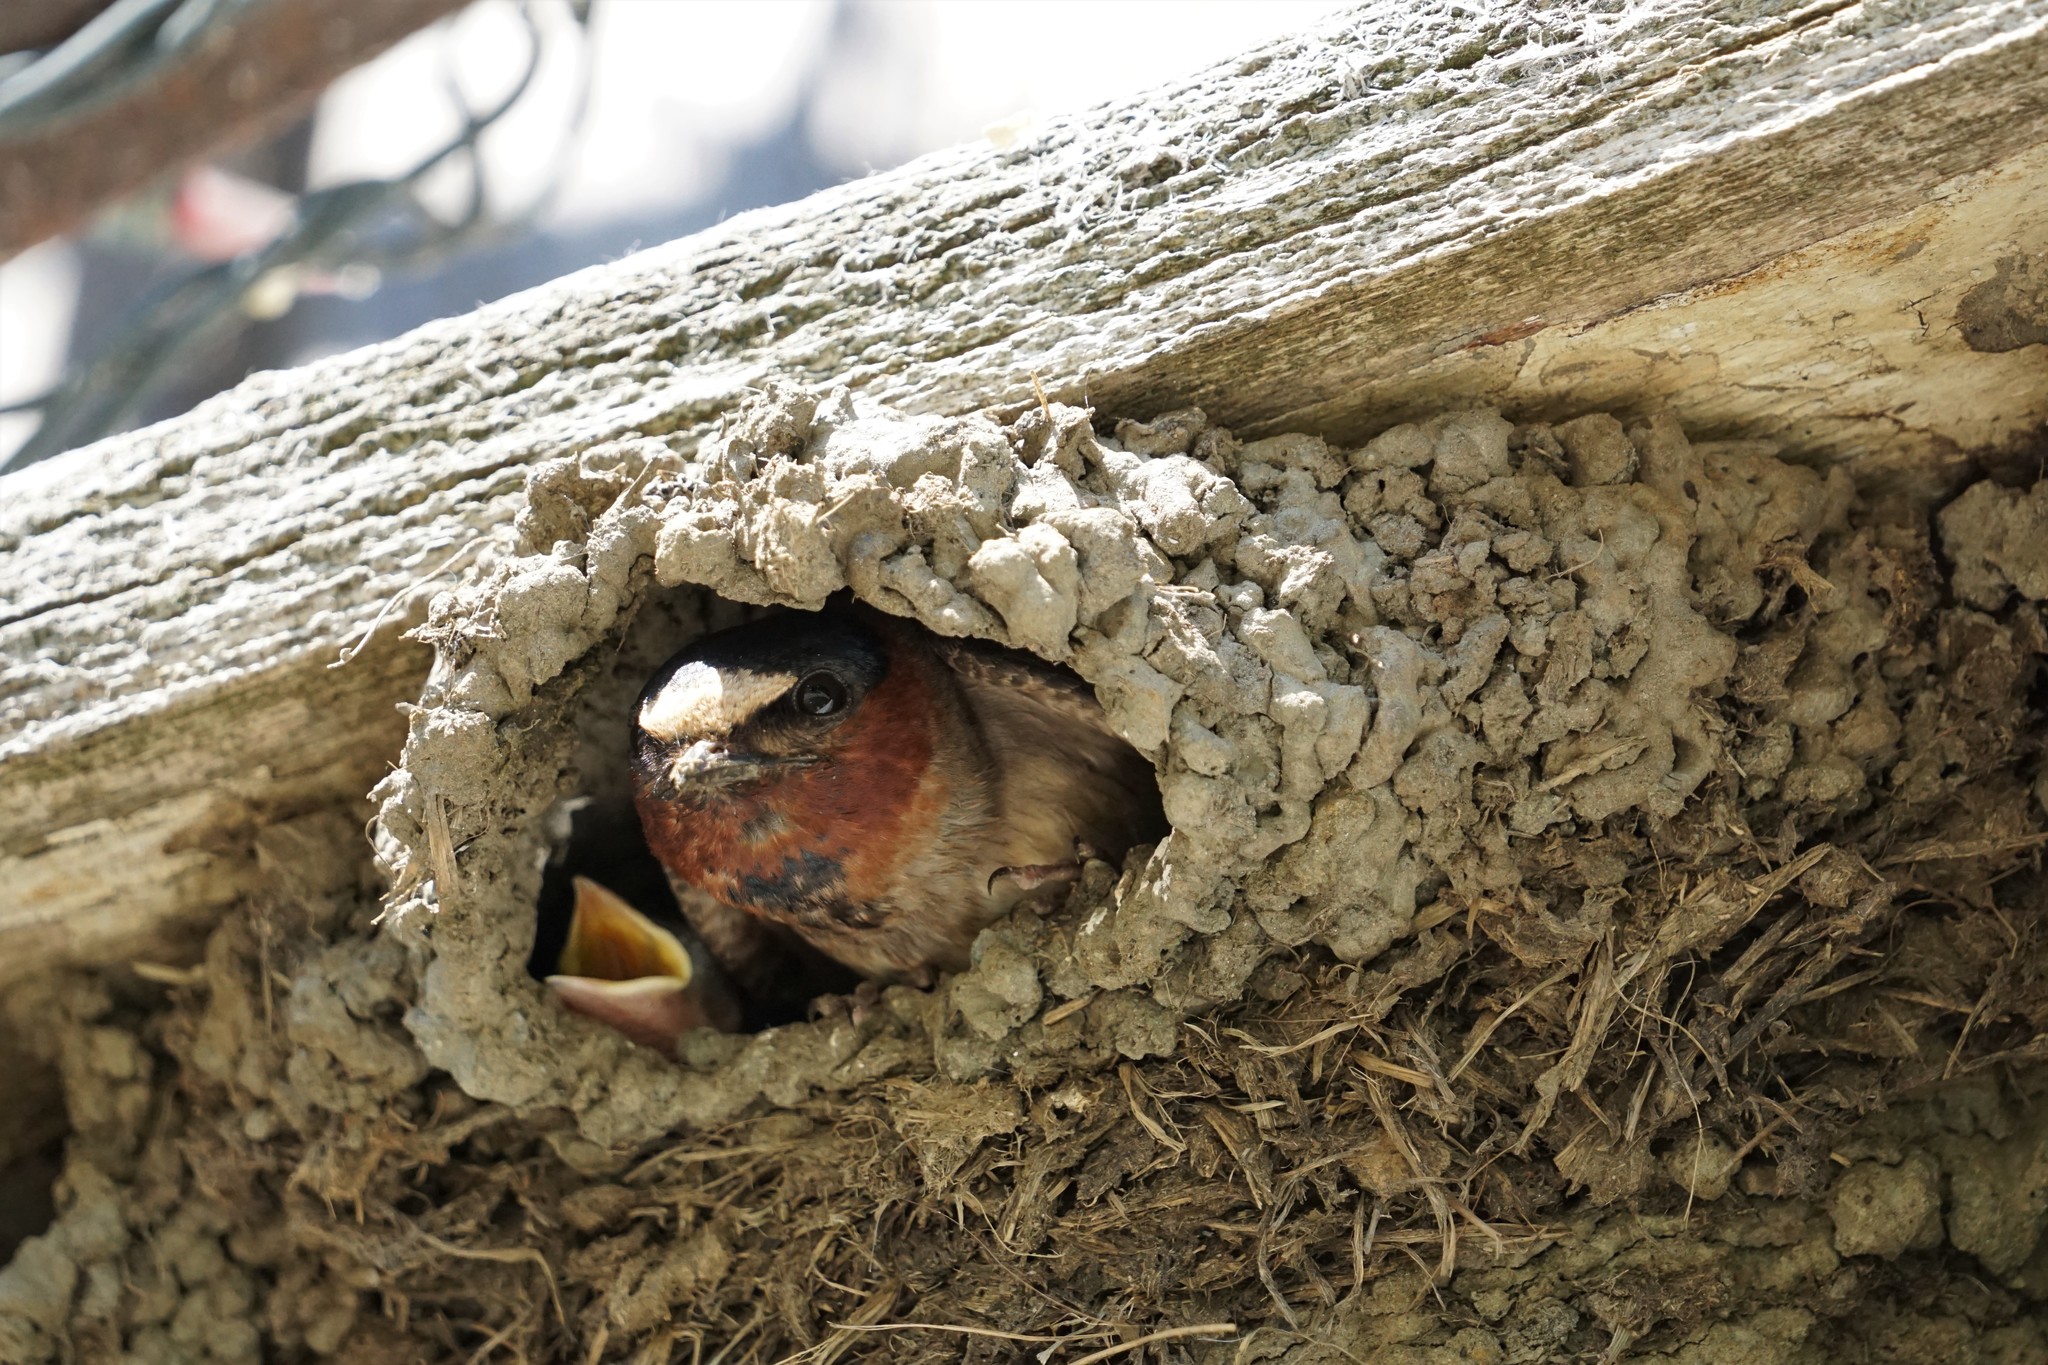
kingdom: Animalia
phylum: Chordata
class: Aves
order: Passeriformes
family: Hirundinidae
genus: Petrochelidon
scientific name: Petrochelidon pyrrhonota
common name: American cliff swallow
